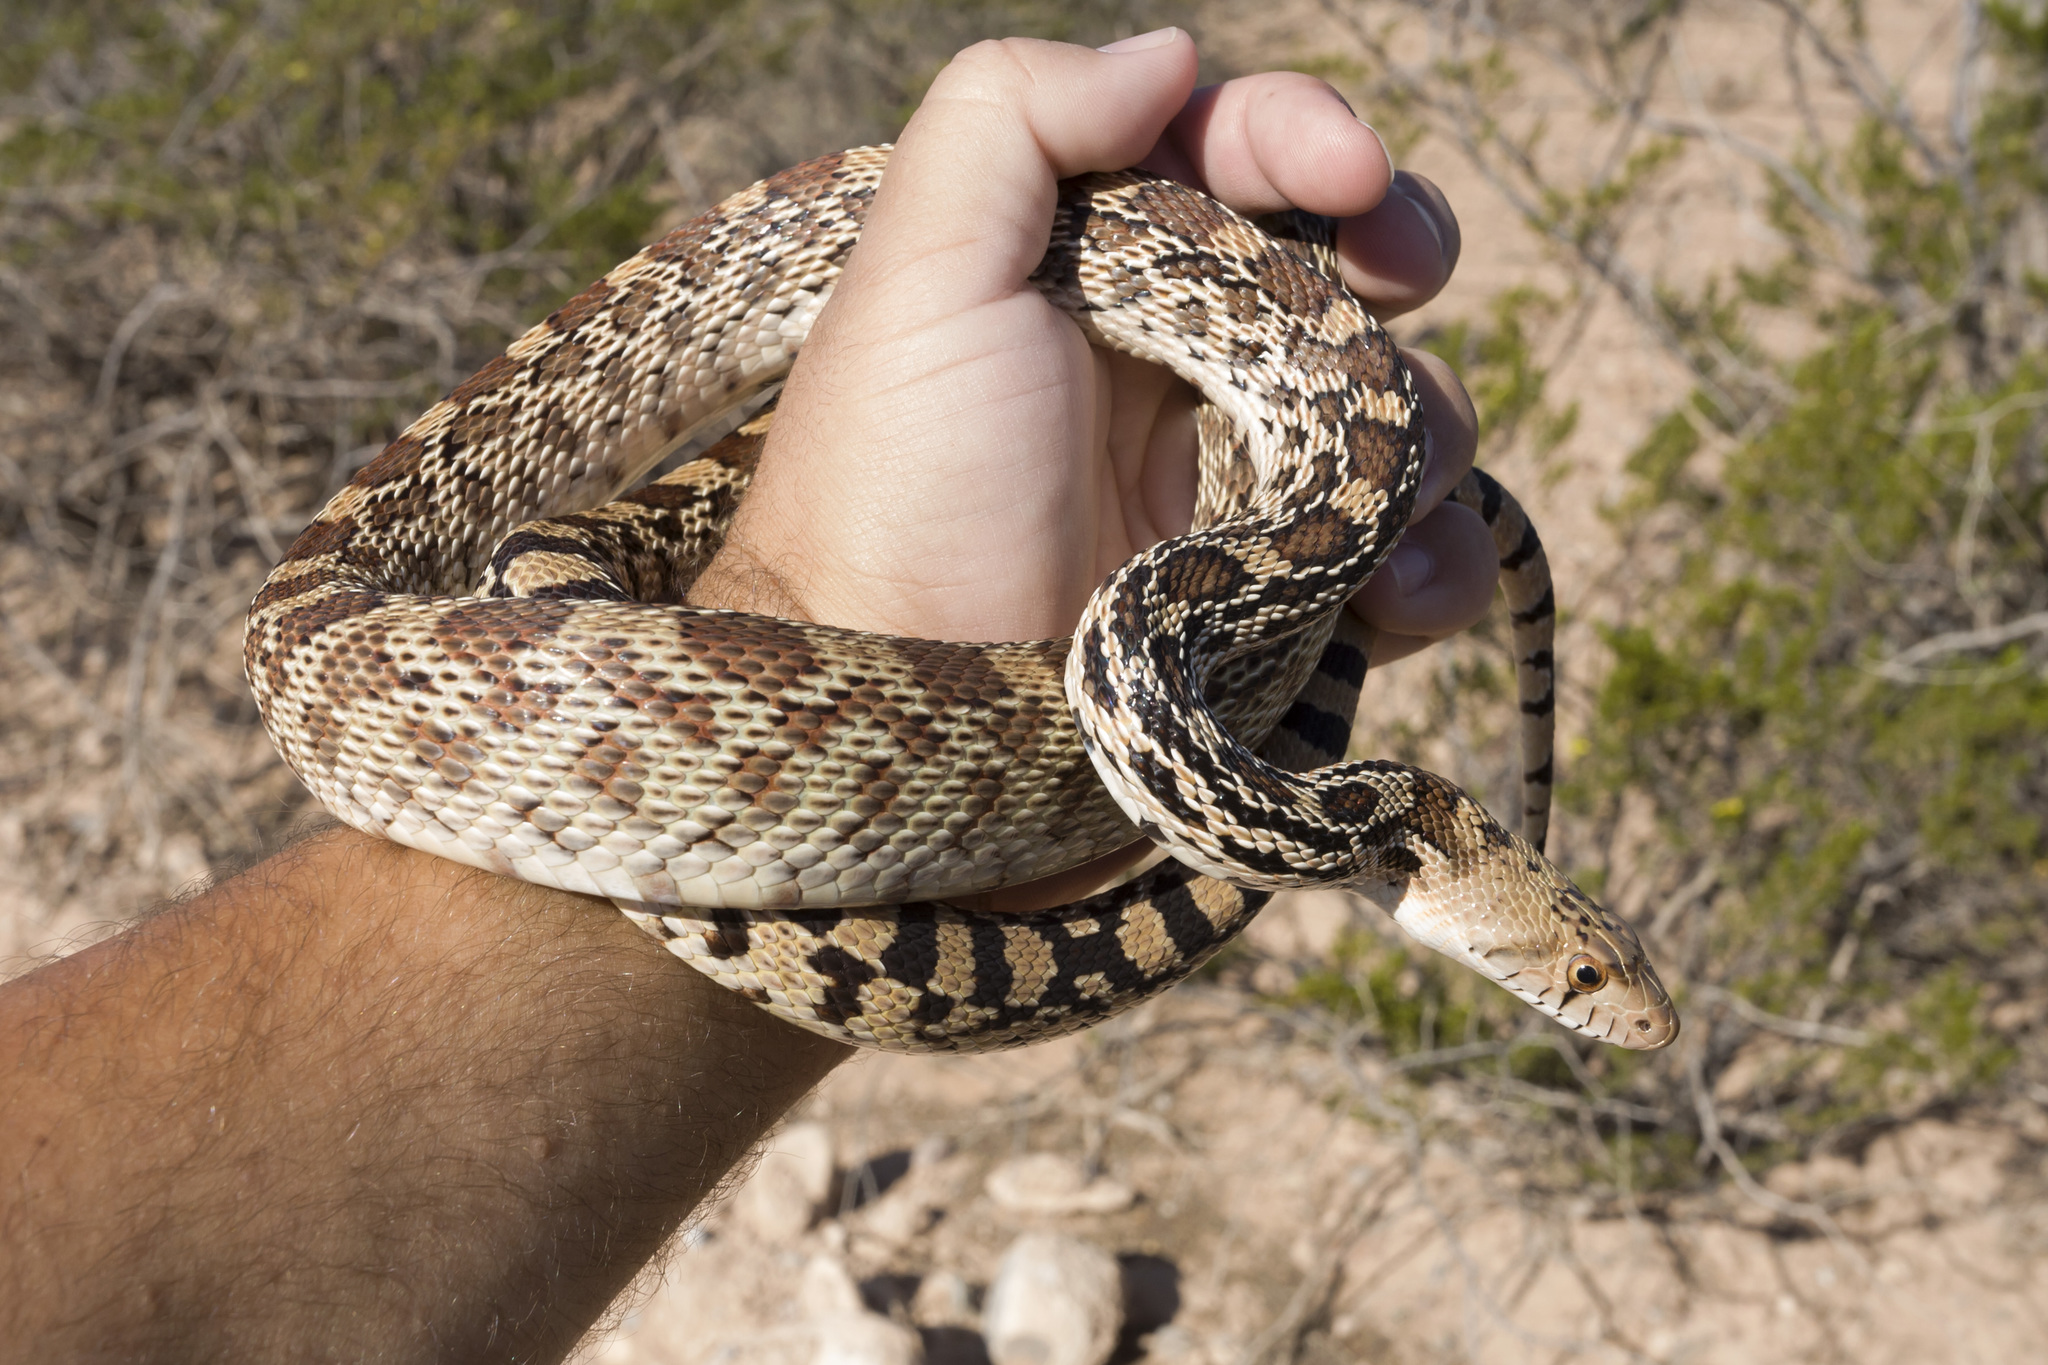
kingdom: Animalia
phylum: Chordata
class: Squamata
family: Colubridae
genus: Pituophis
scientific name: Pituophis catenifer
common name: Gopher snake
